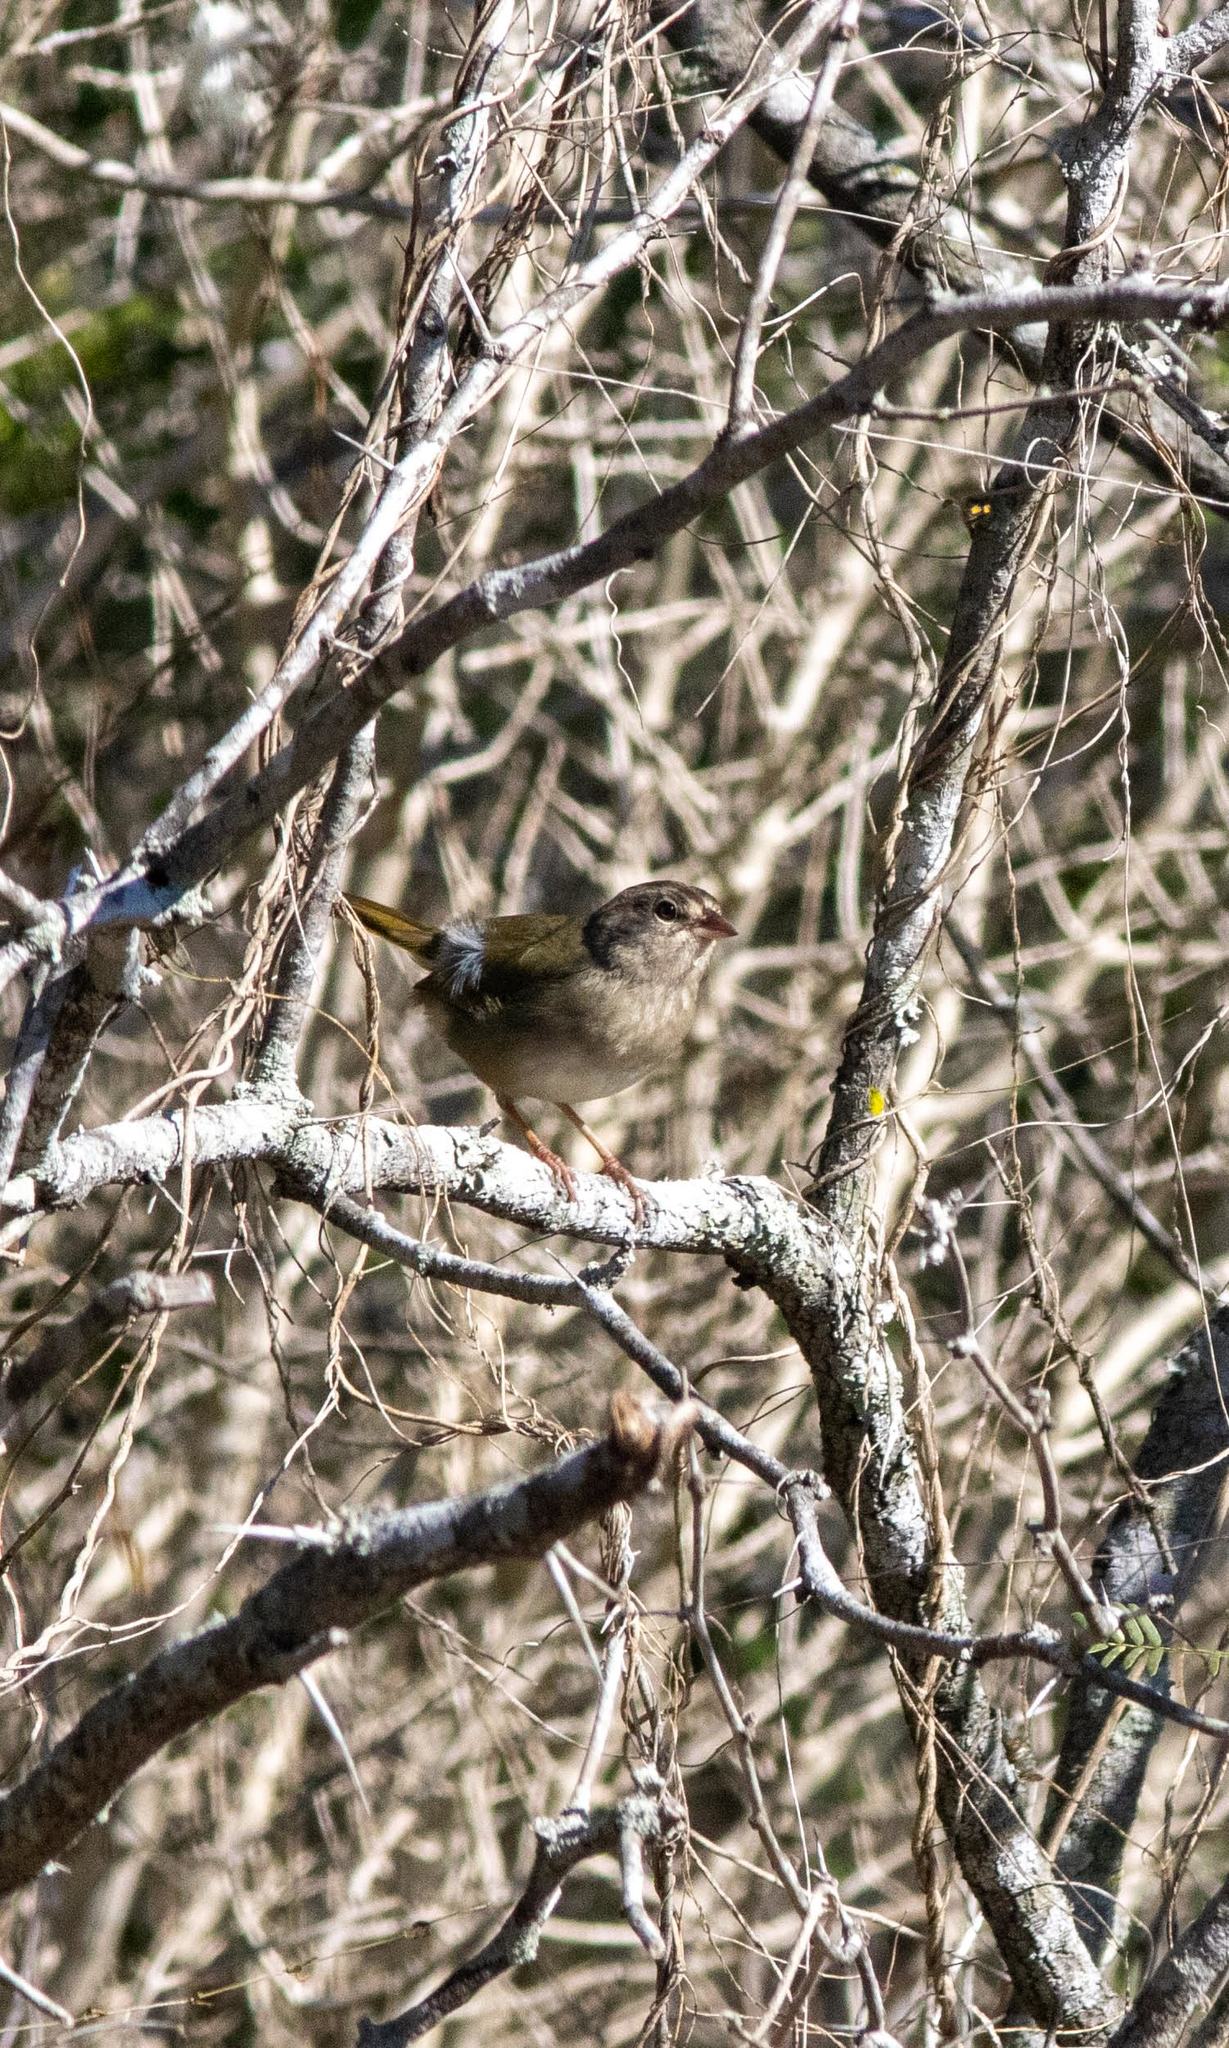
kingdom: Animalia
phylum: Chordata
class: Aves
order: Passeriformes
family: Passerellidae
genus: Arremonops
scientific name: Arremonops rufivirgatus
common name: Olive sparrow
